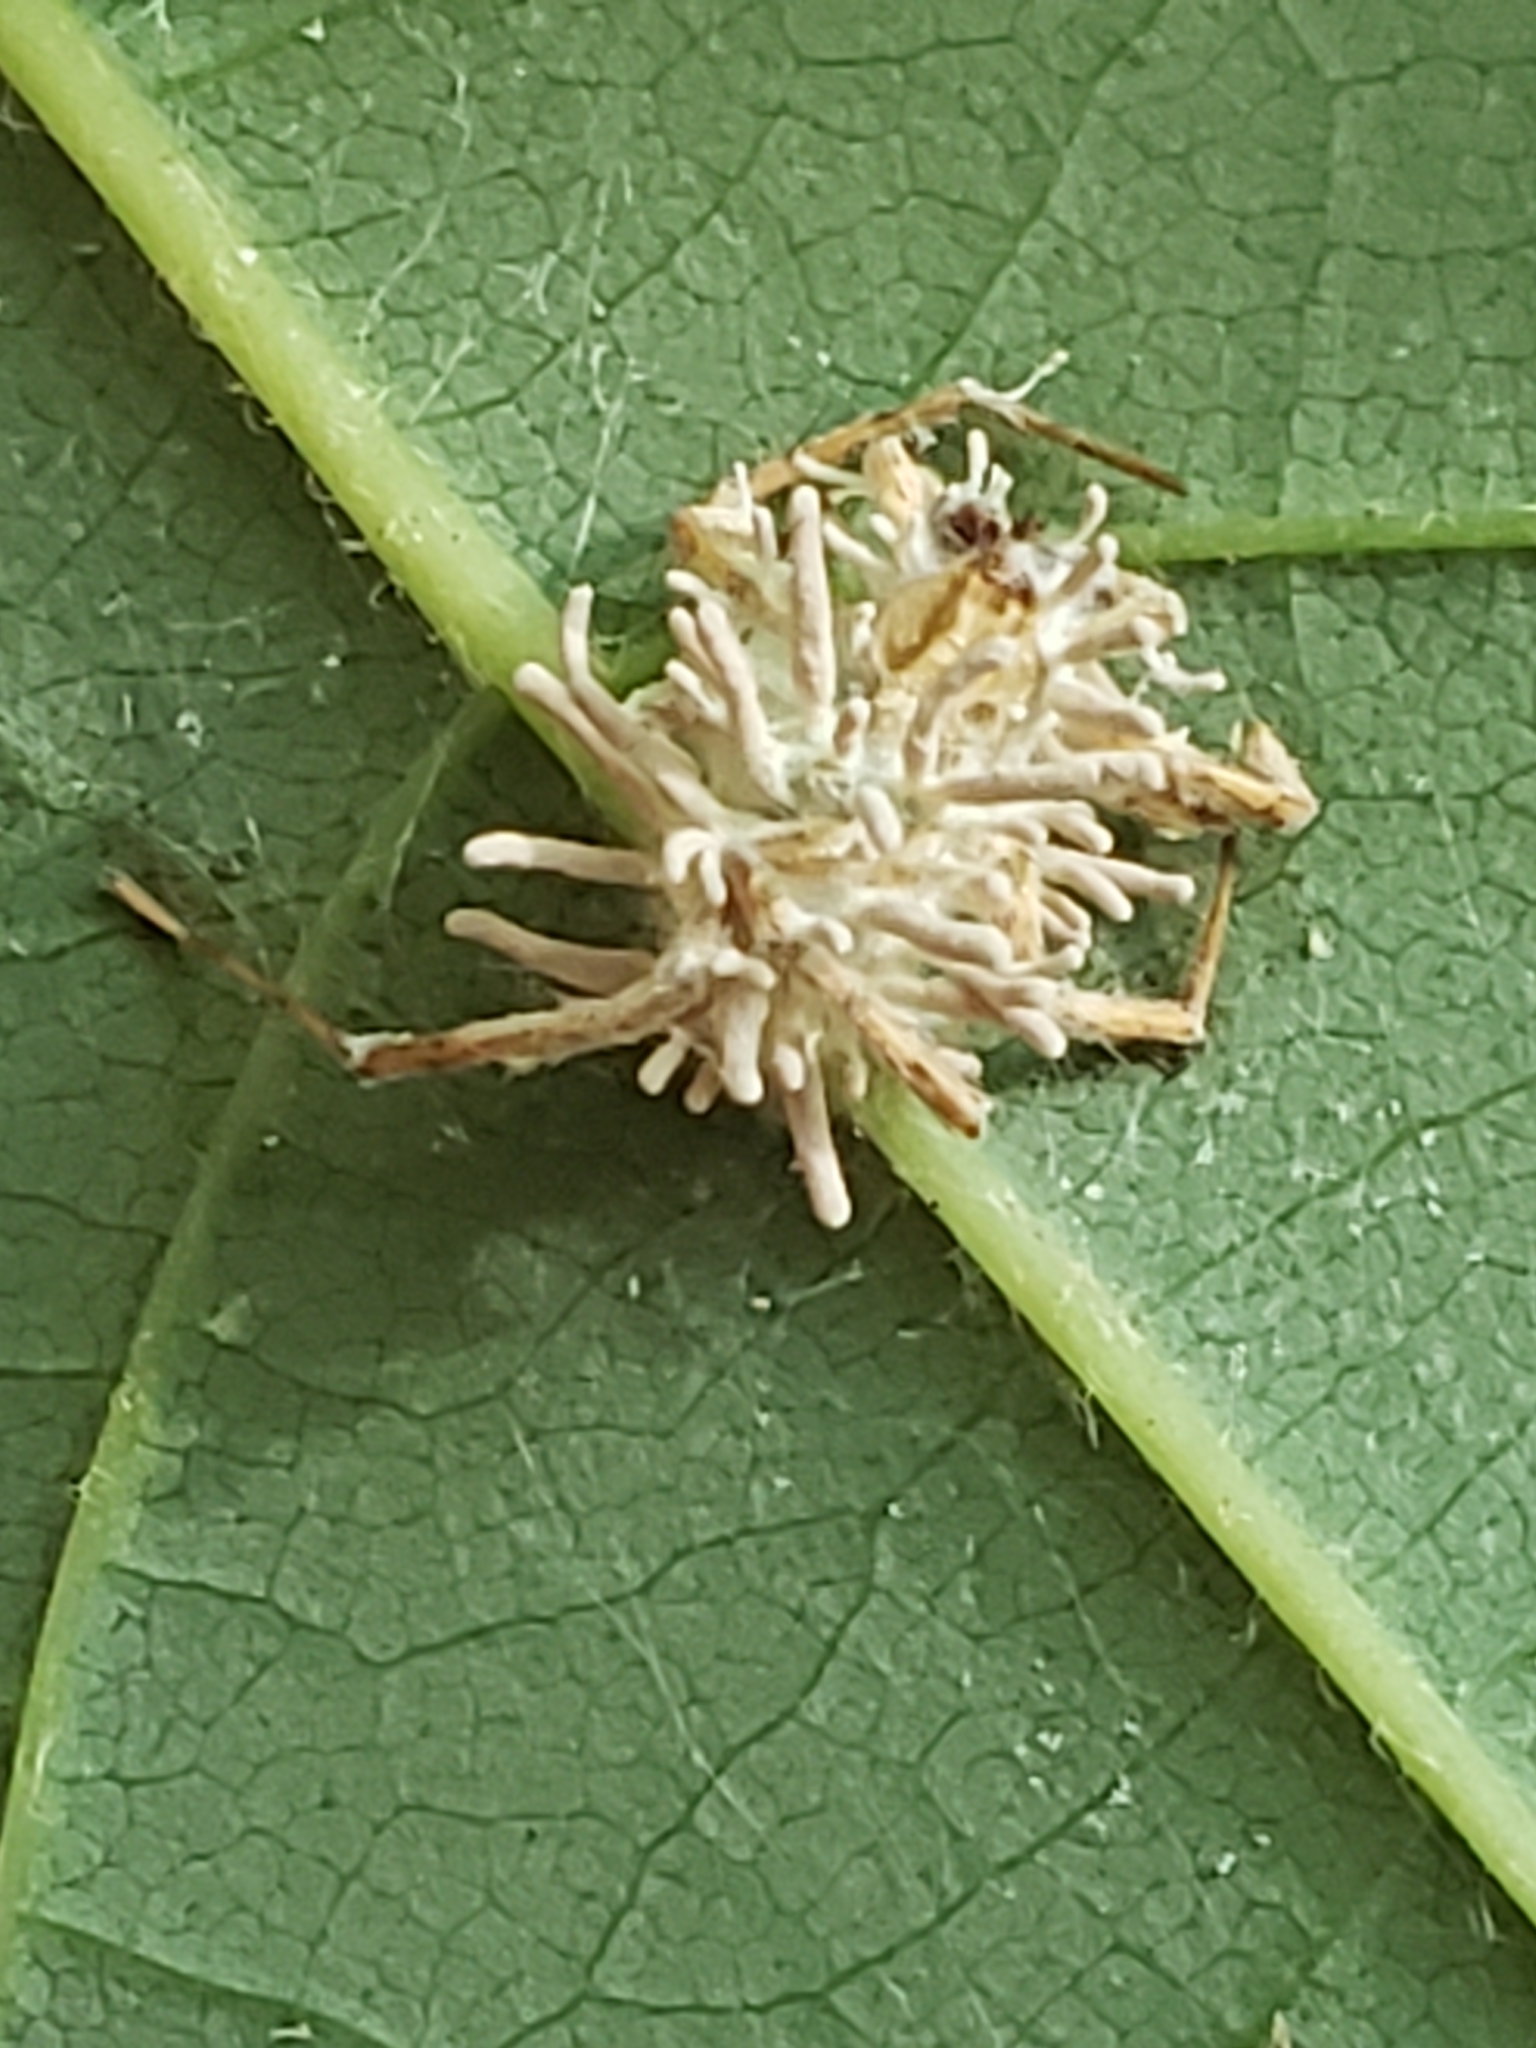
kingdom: Fungi
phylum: Ascomycota
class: Sordariomycetes
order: Hypocreales
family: Cordycipitaceae
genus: Gibellula
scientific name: Gibellula arachnophila
